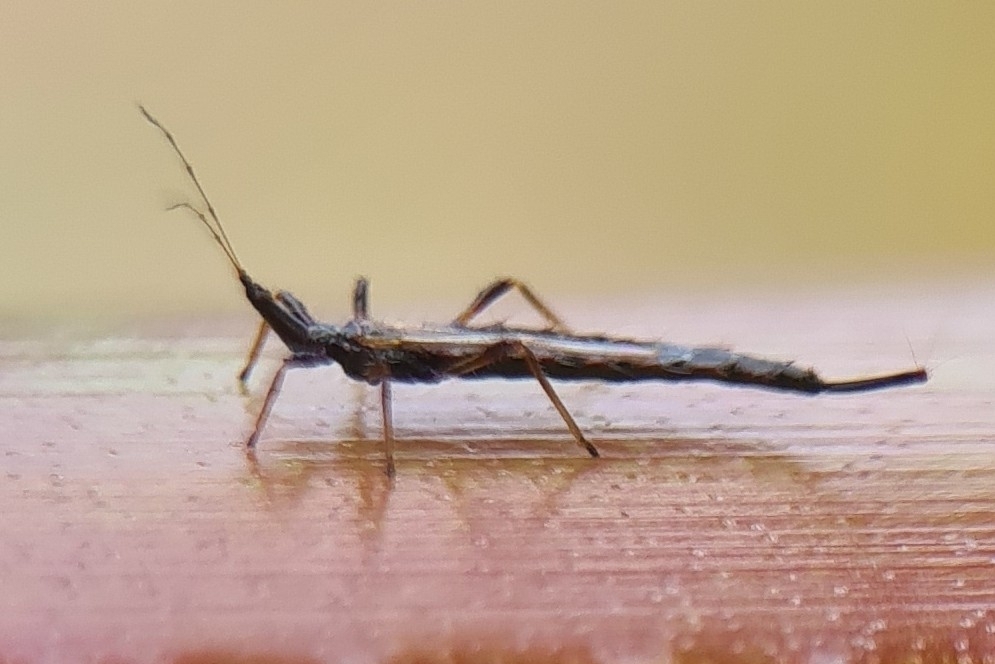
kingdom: Animalia
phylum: Arthropoda
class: Insecta
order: Thysanoptera
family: Phlaeothripidae
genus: Idolothrips
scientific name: Idolothrips spectrum
